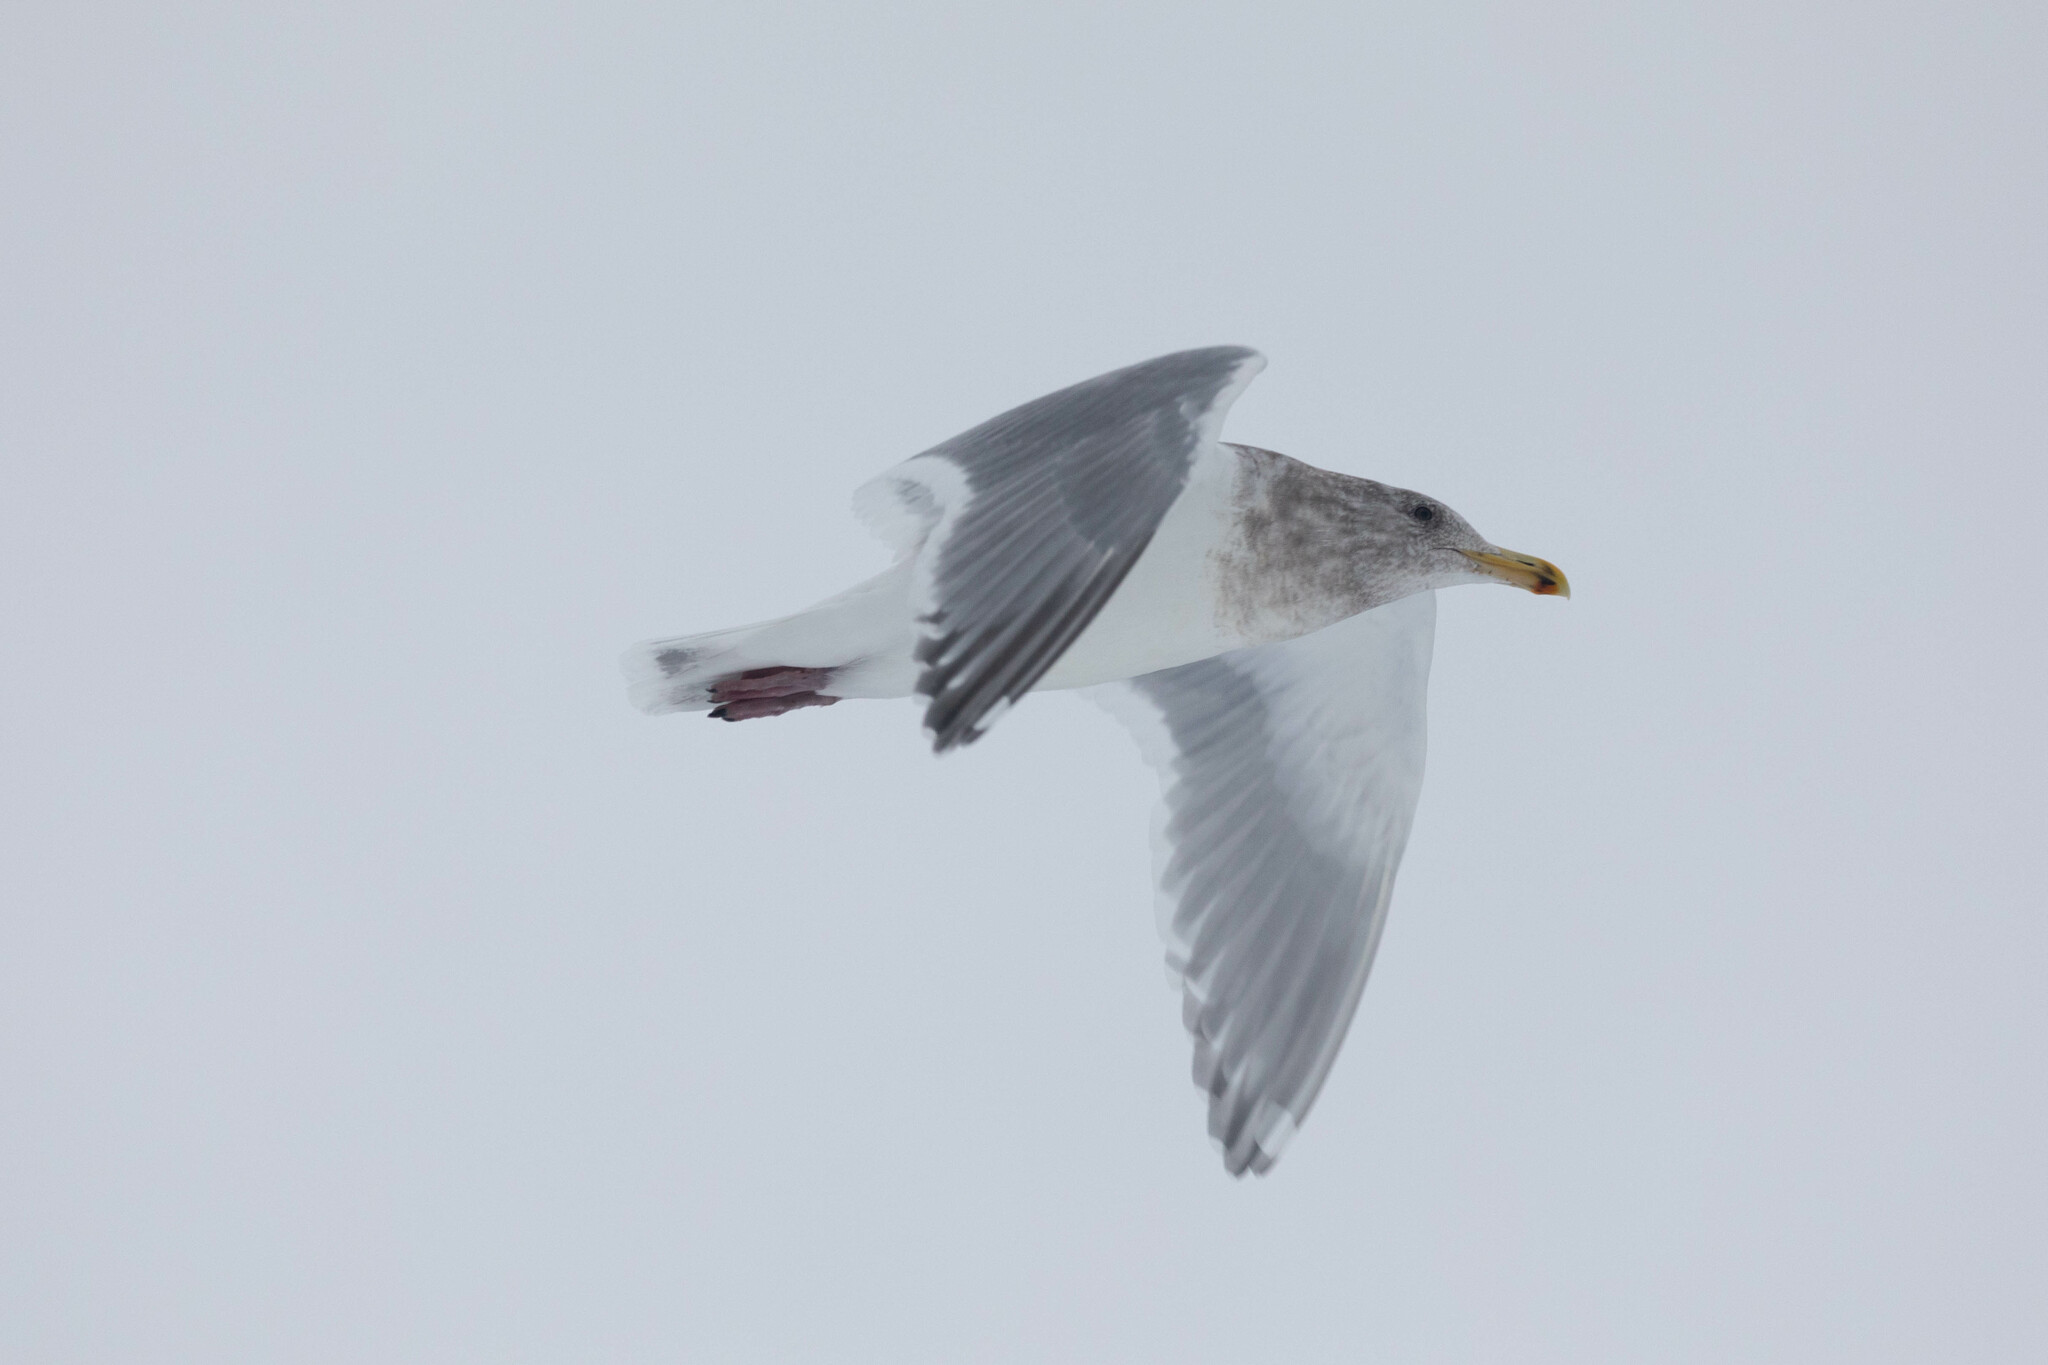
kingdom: Animalia
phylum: Chordata
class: Aves
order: Charadriiformes
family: Laridae
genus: Larus
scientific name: Larus
